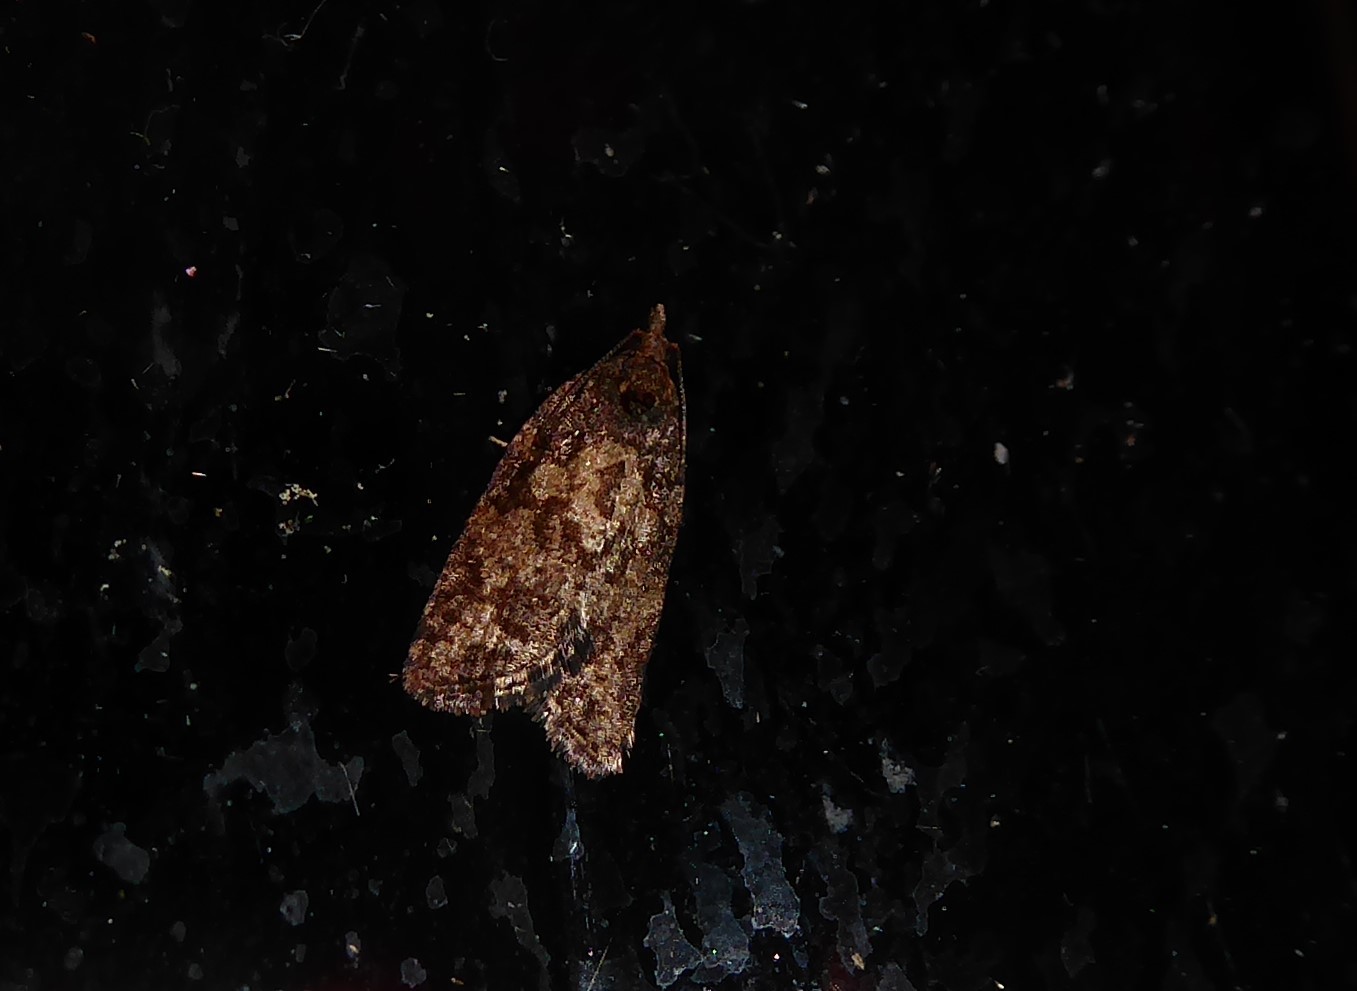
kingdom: Animalia
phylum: Arthropoda
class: Insecta
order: Lepidoptera
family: Tortricidae
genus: Capua
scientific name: Capua intractana
